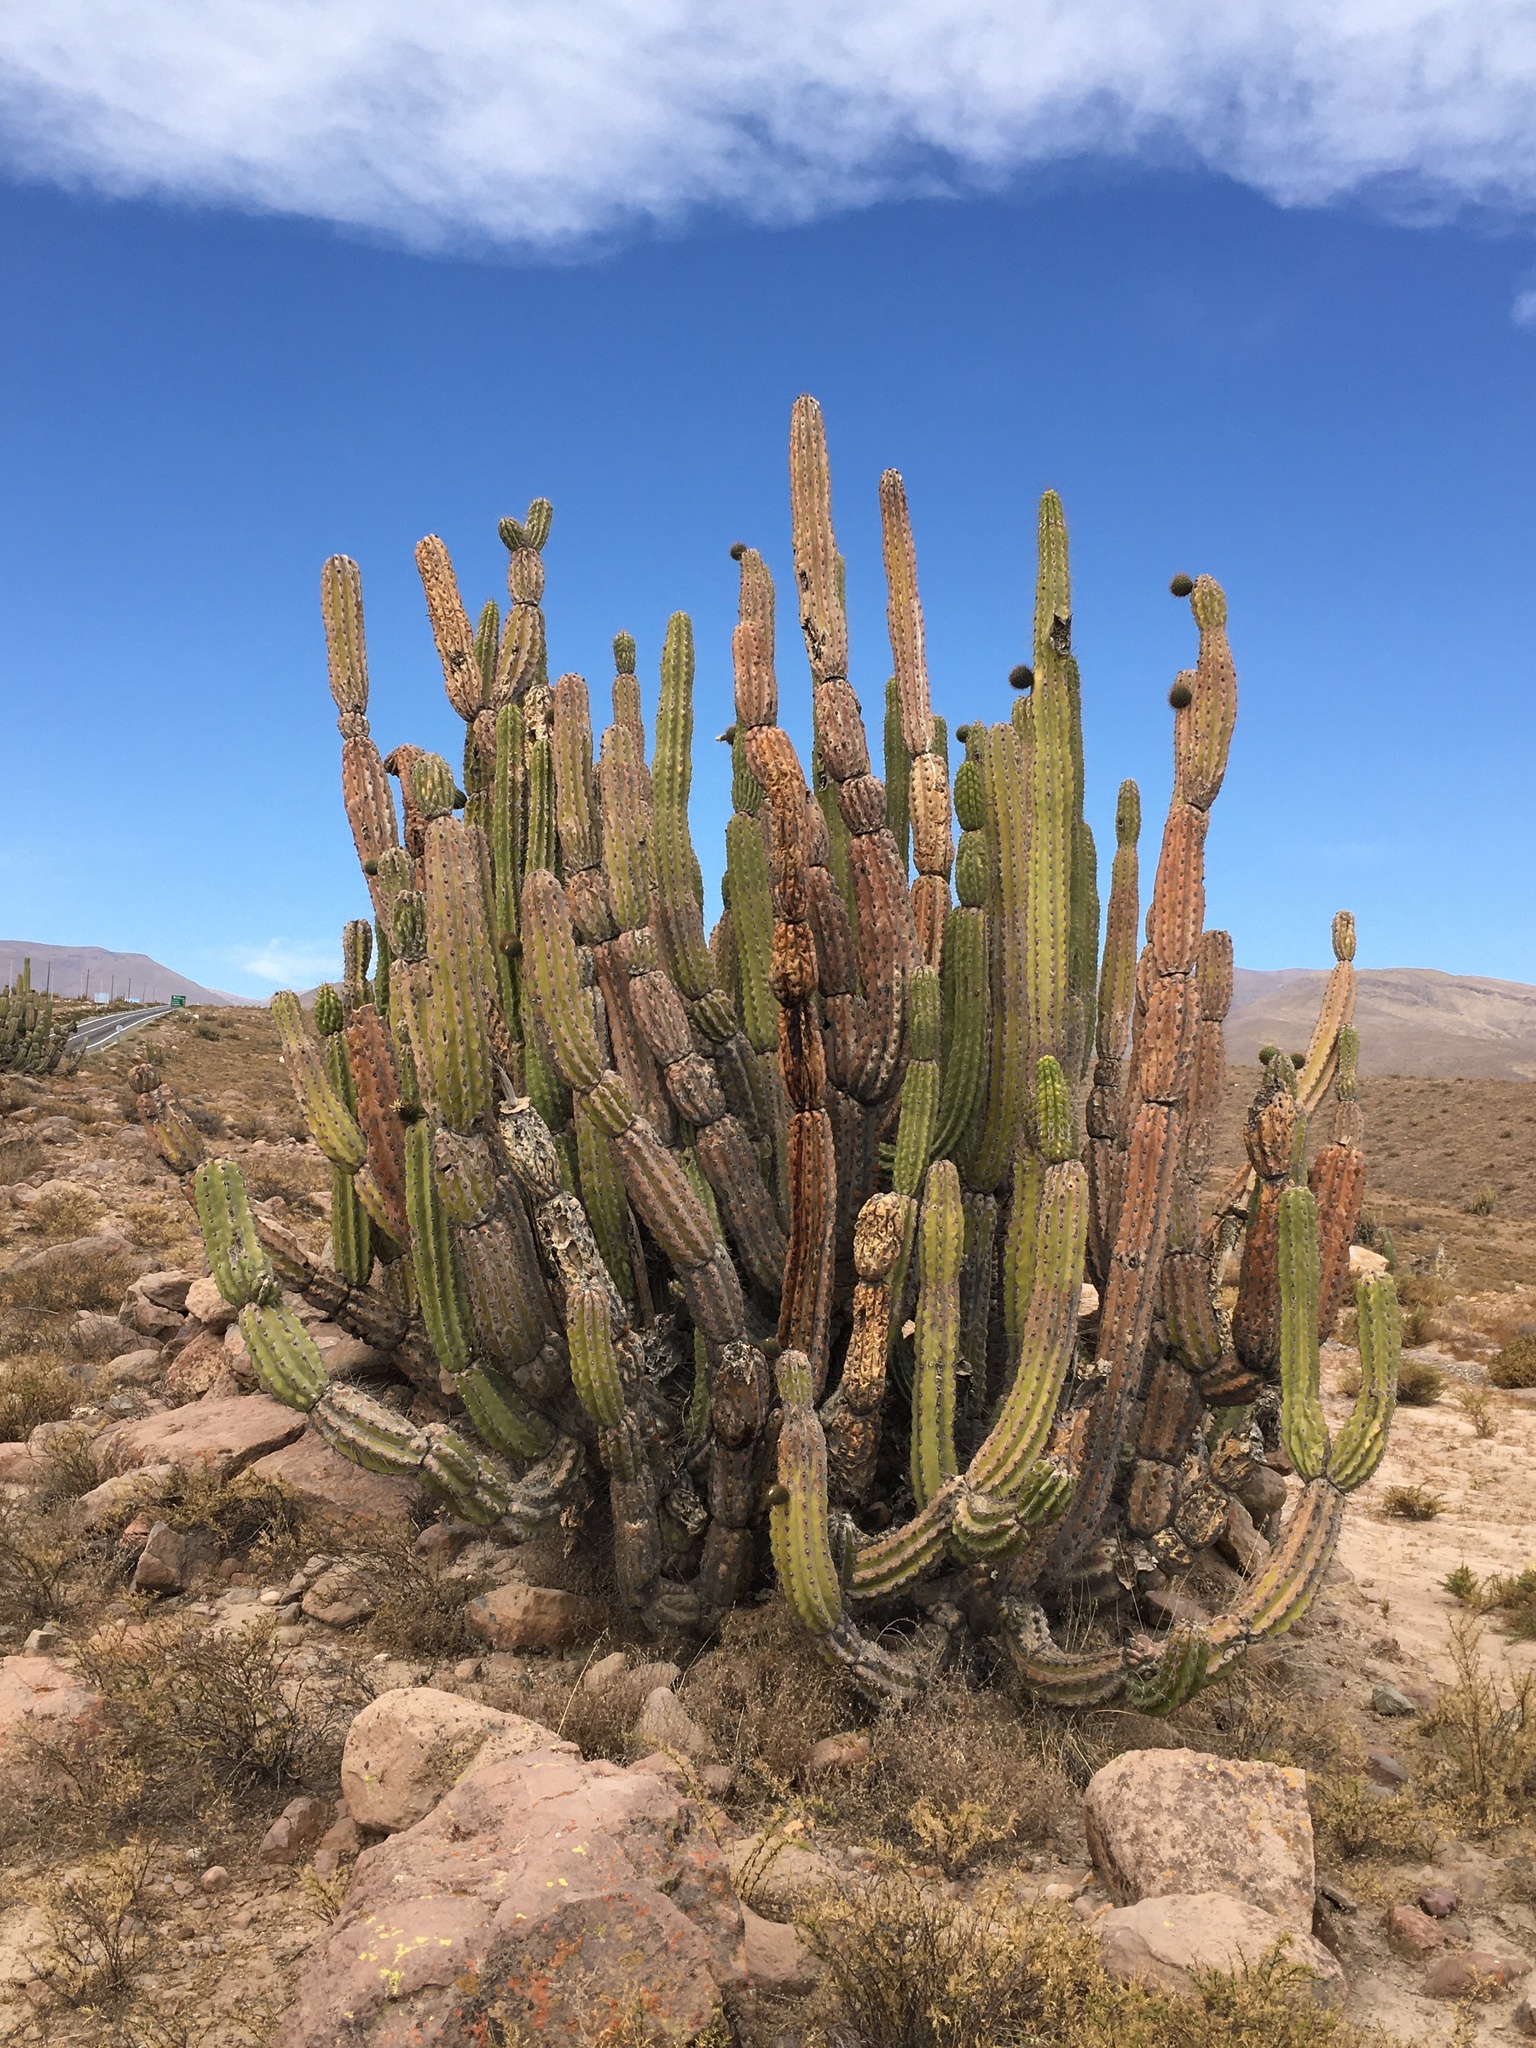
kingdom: Plantae
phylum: Tracheophyta
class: Magnoliopsida
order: Caryophyllales
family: Cactaceae
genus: Corryocactus
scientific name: Corryocactus brevistylus
